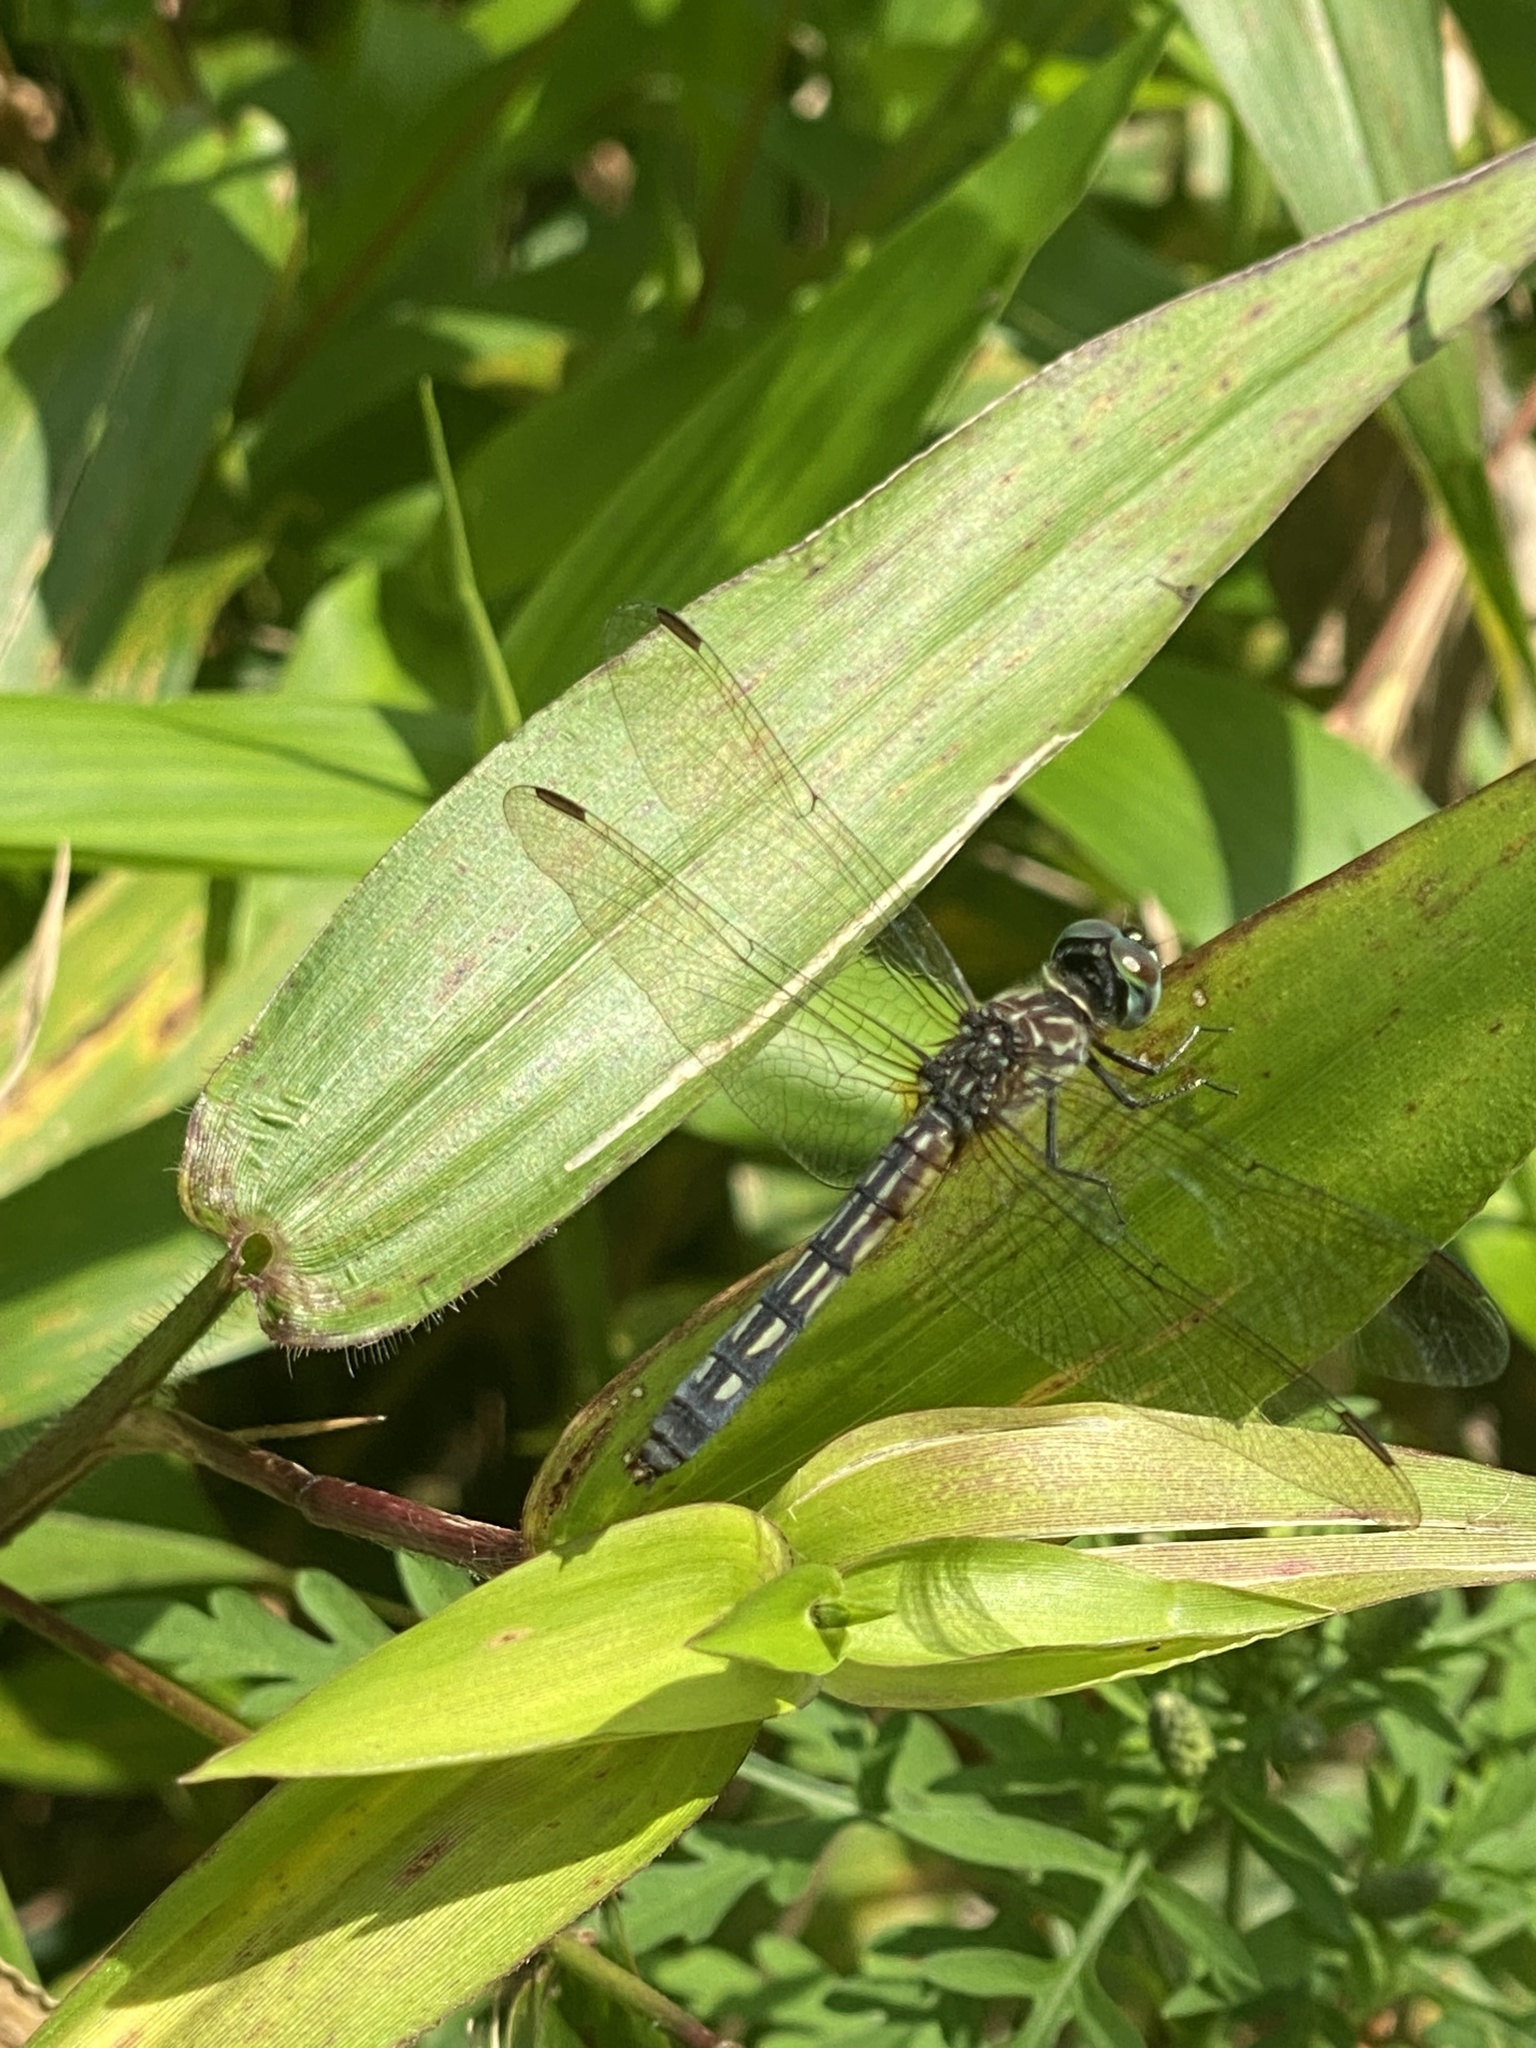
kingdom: Animalia
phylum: Arthropoda
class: Insecta
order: Odonata
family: Libellulidae
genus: Pachydiplax
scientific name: Pachydiplax longipennis
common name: Blue dasher
